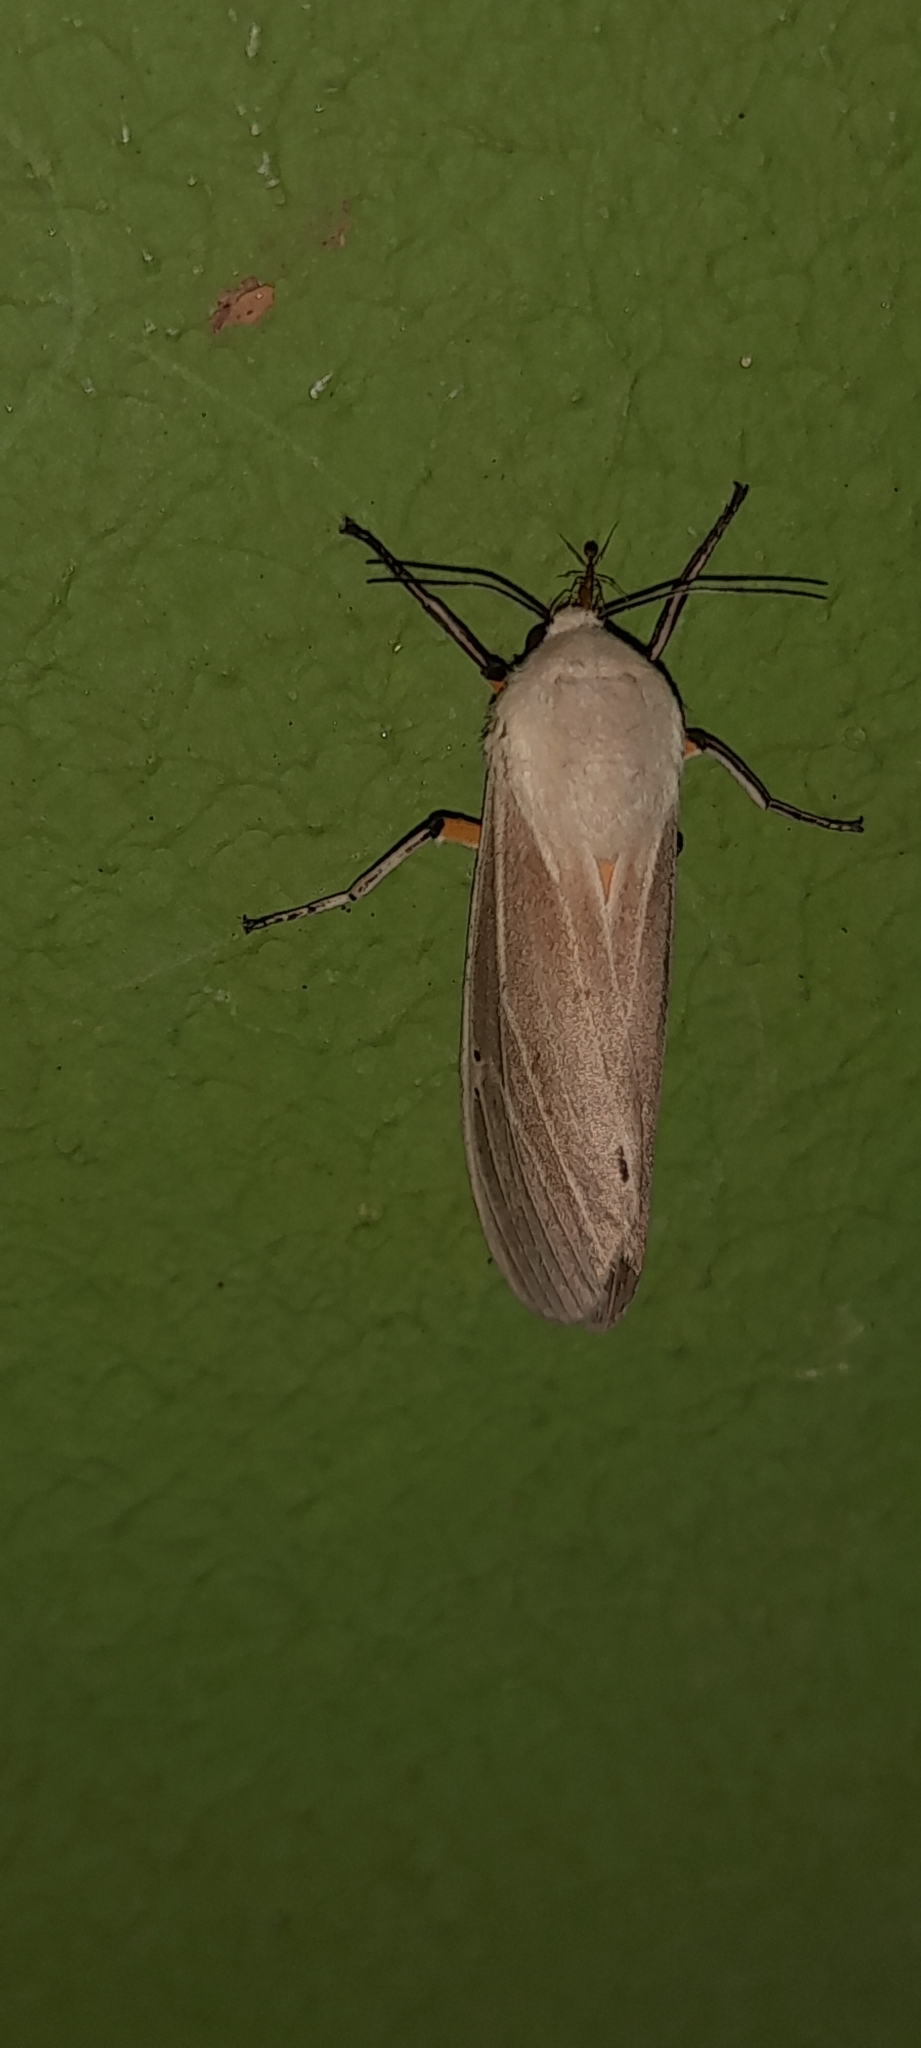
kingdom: Animalia
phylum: Arthropoda
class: Insecta
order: Lepidoptera
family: Erebidae
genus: Creatonotos
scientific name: Creatonotos transiens
